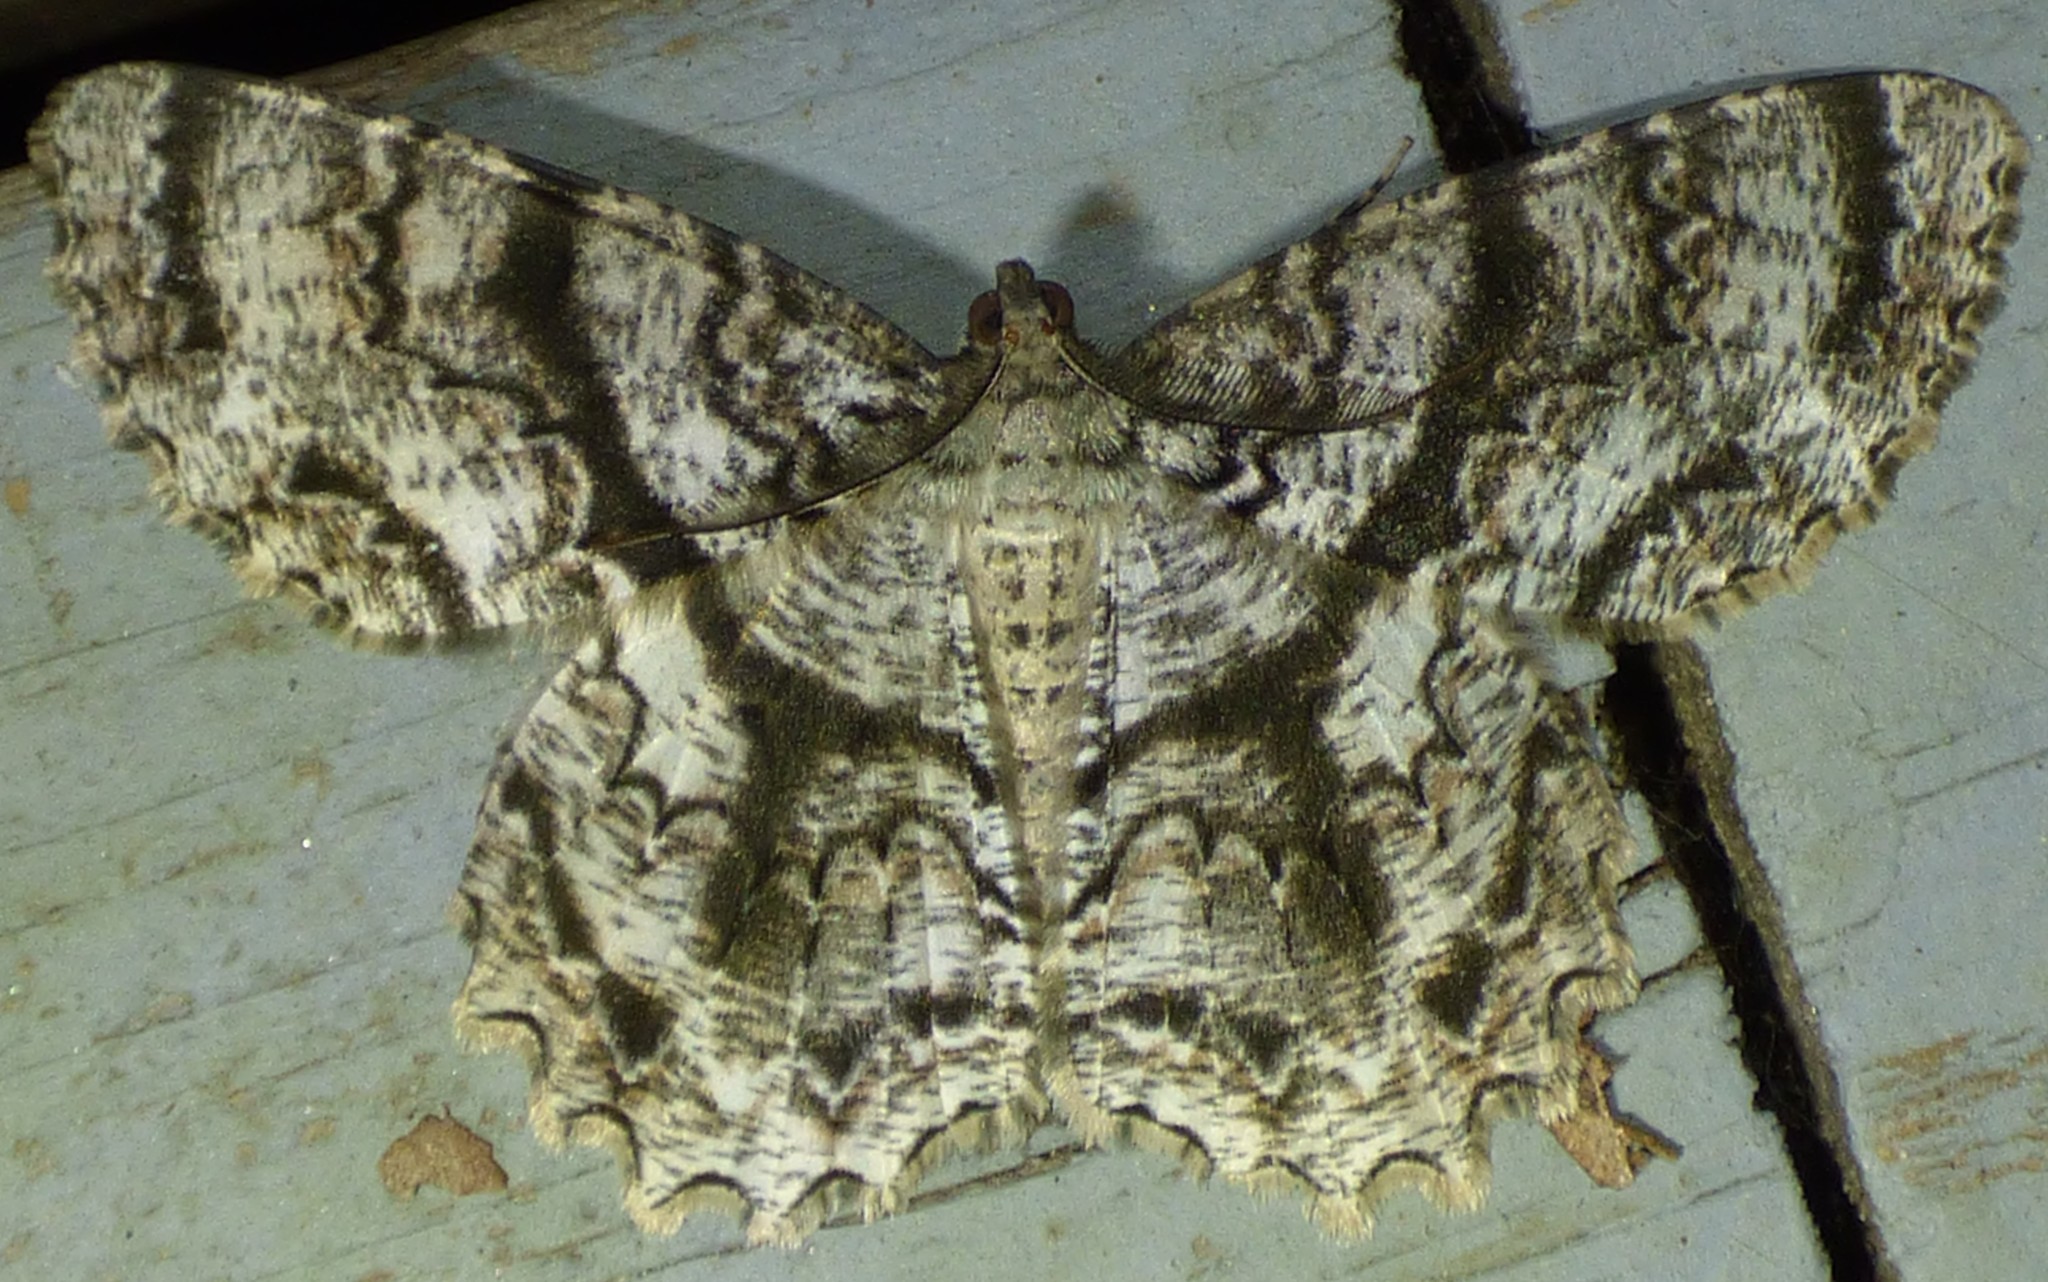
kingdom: Animalia
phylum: Arthropoda
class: Insecta
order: Lepidoptera
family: Geometridae
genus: Epimecis
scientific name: Epimecis hortaria
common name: Tulip-tree beauty
